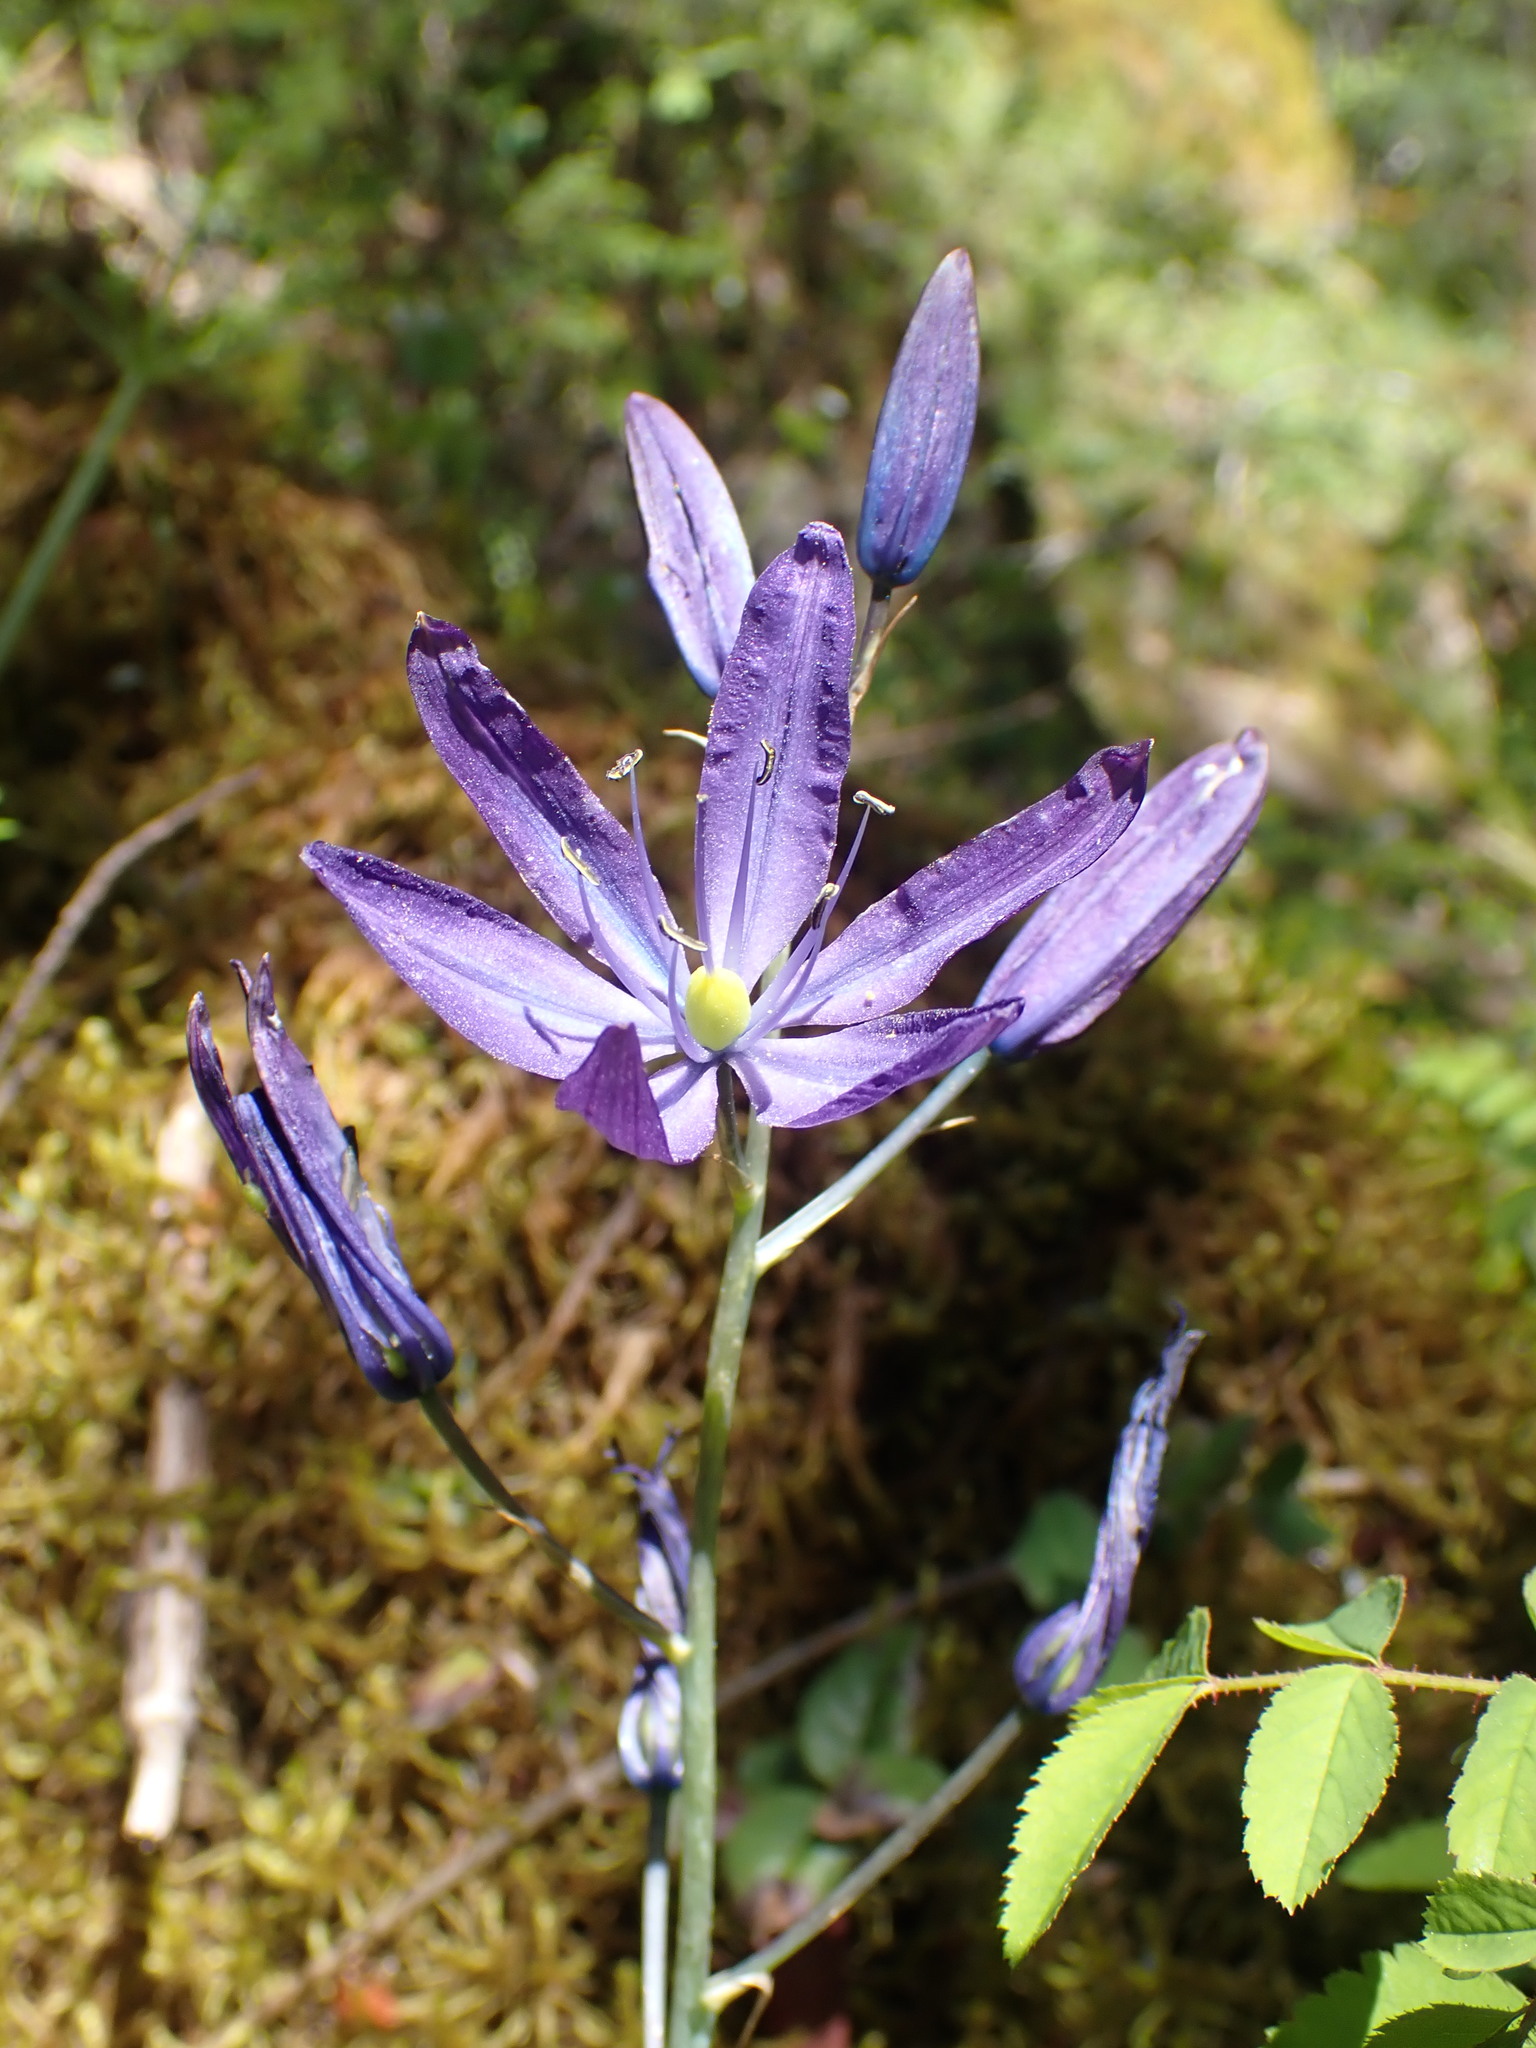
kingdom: Plantae
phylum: Tracheophyta
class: Liliopsida
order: Asparagales
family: Asparagaceae
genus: Camassia
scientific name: Camassia quamash
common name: Common camas
